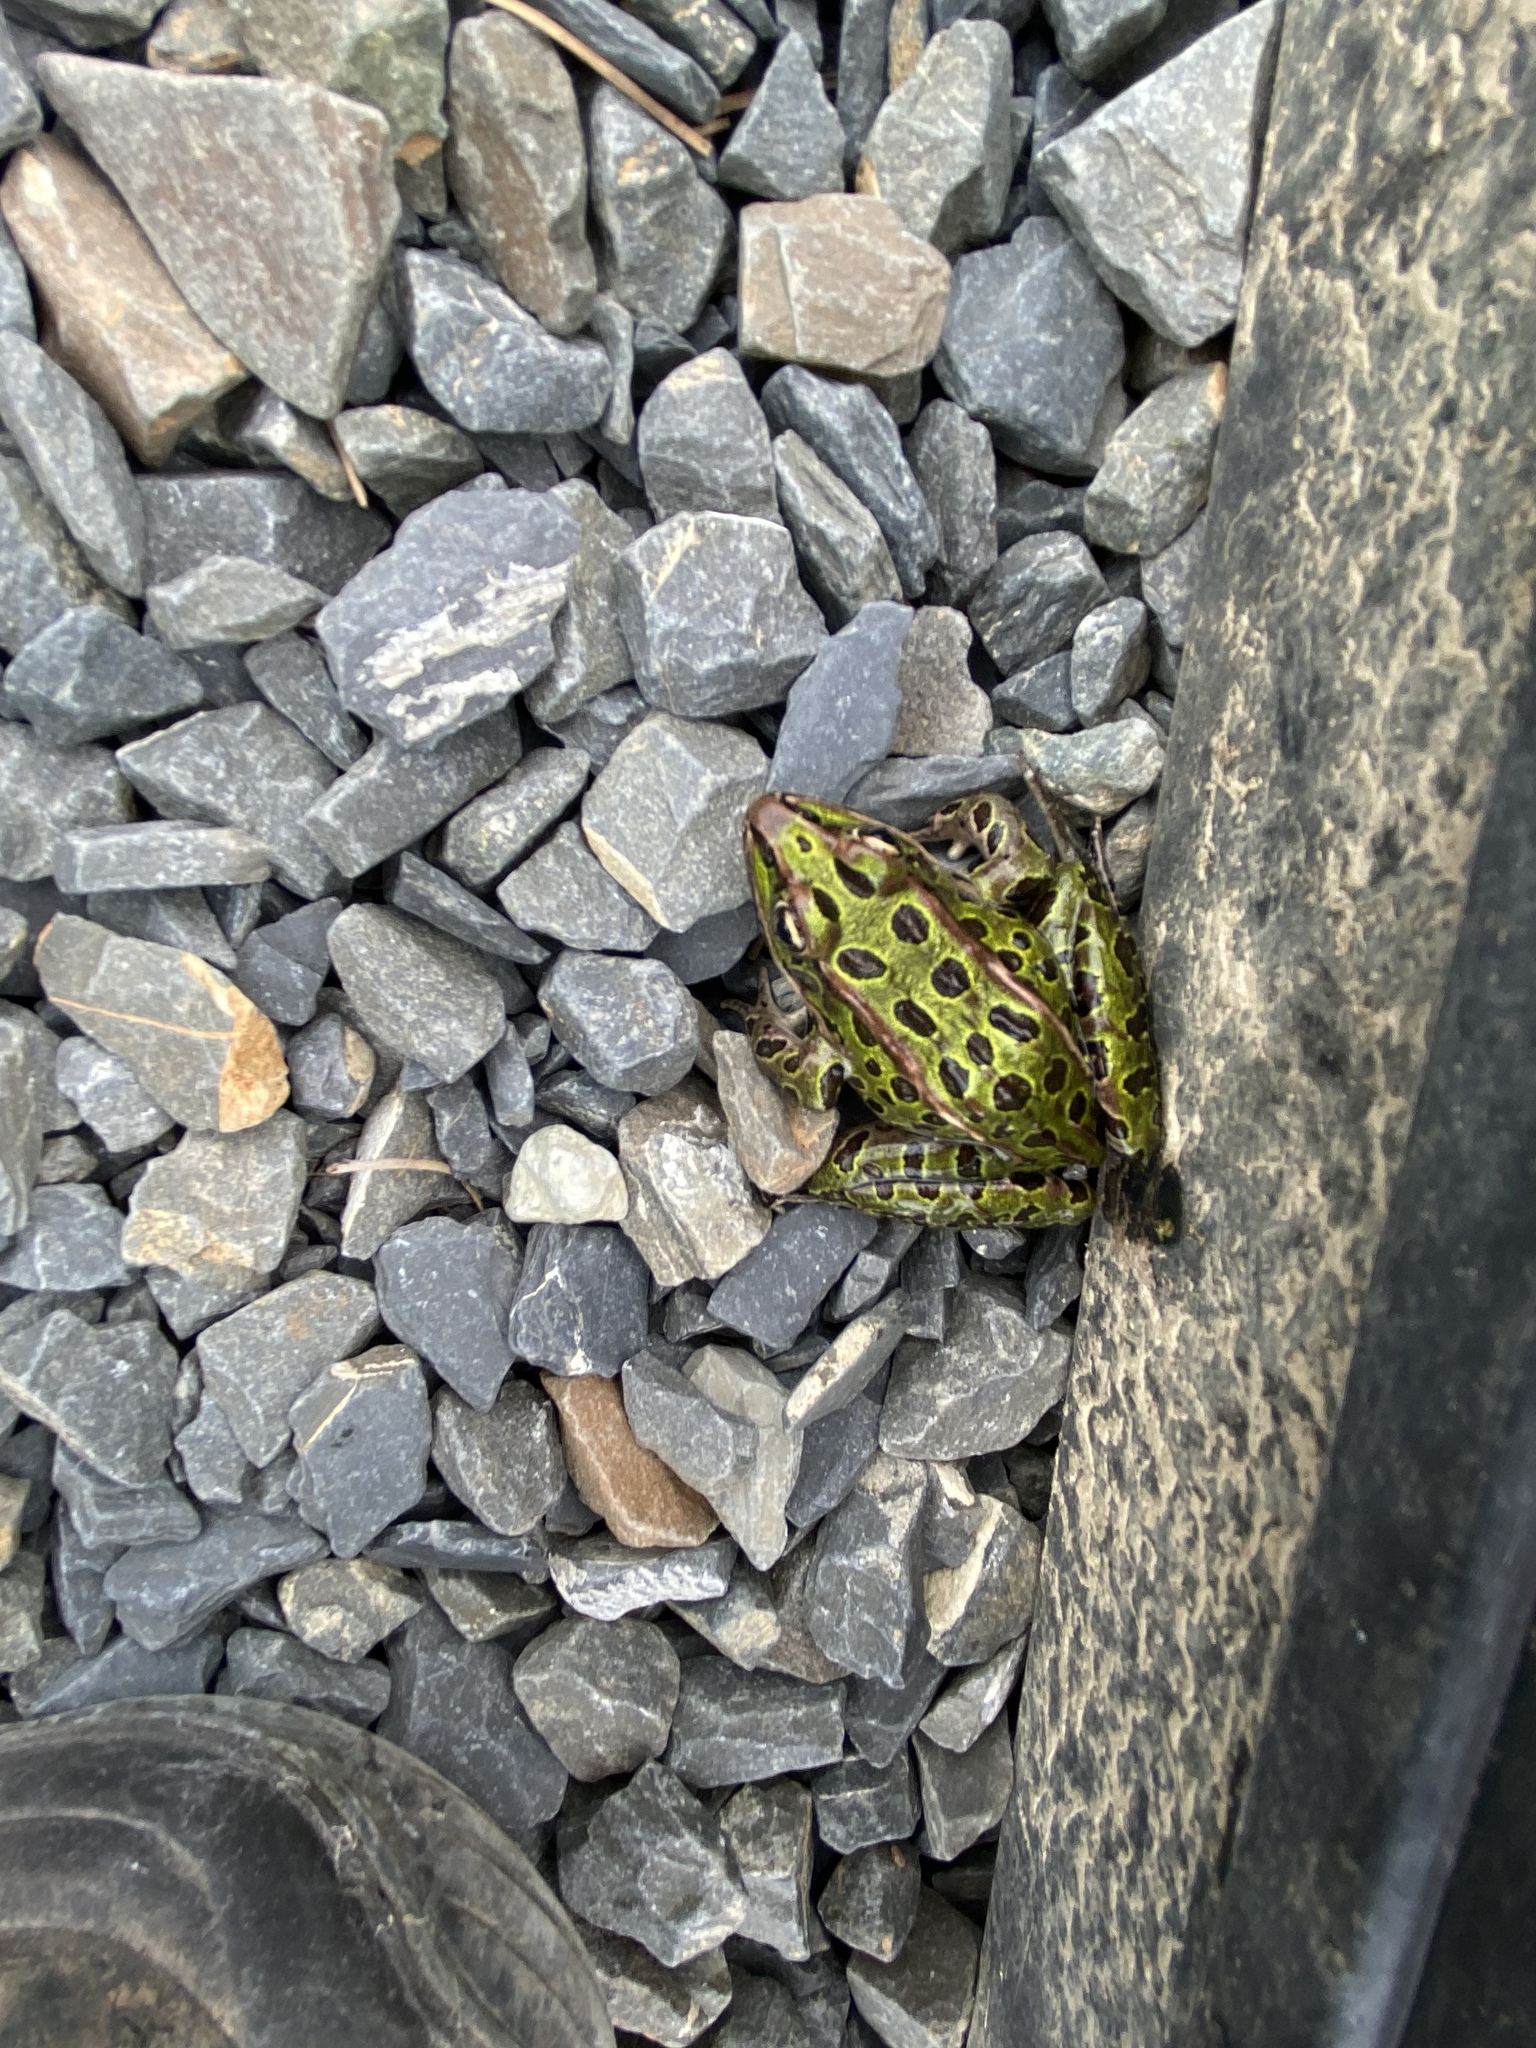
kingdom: Animalia
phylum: Chordata
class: Amphibia
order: Anura
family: Ranidae
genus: Lithobates
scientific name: Lithobates pipiens
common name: Northern leopard frog
